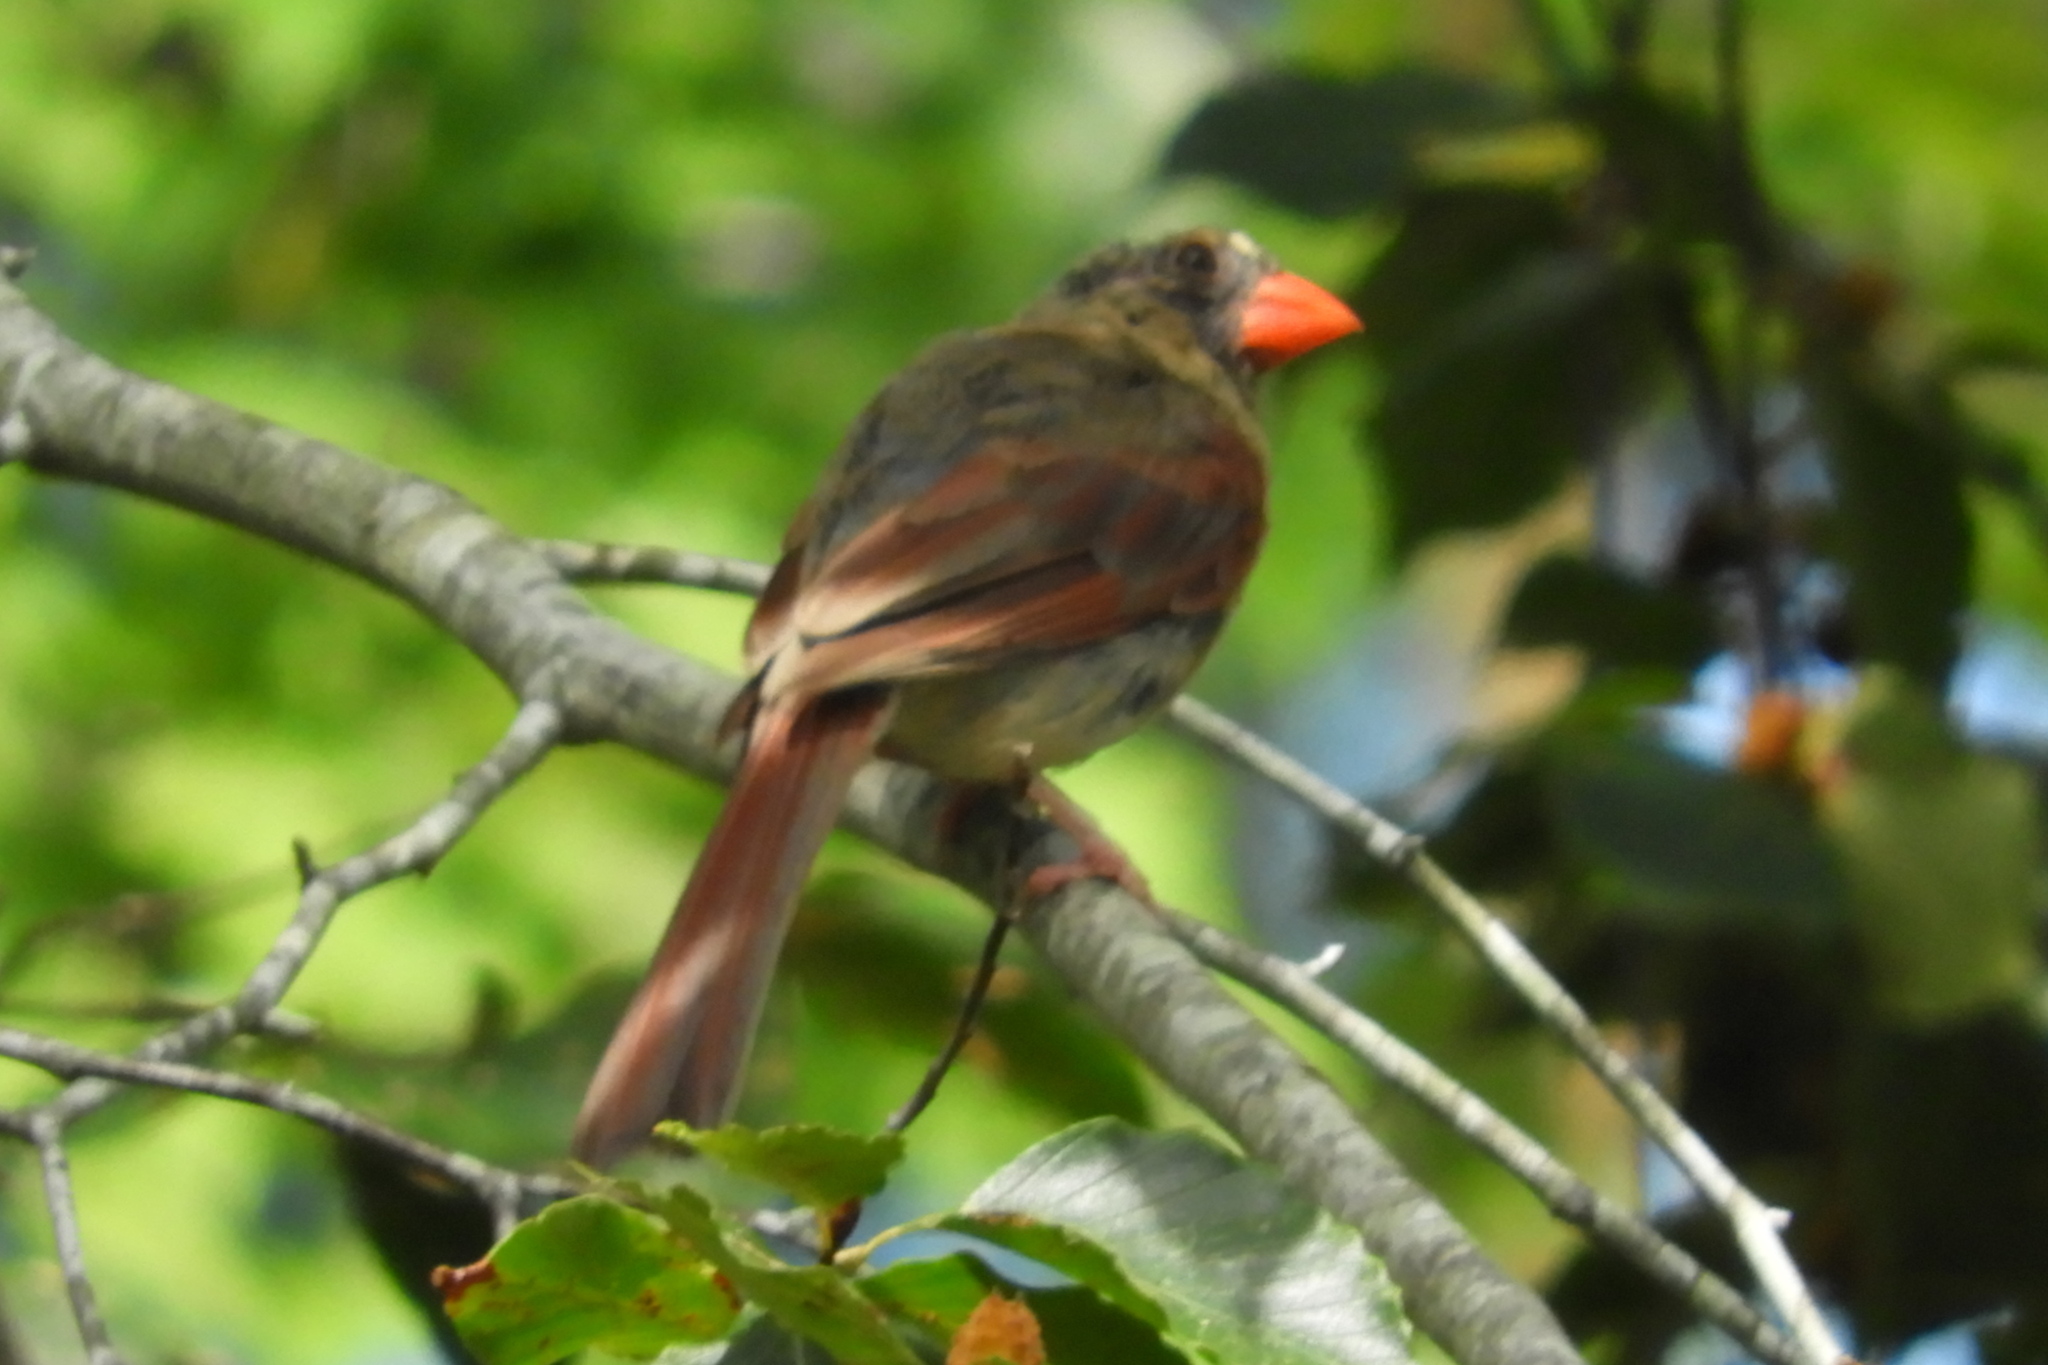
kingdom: Animalia
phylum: Chordata
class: Aves
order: Passeriformes
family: Cardinalidae
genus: Cardinalis
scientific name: Cardinalis cardinalis
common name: Northern cardinal
